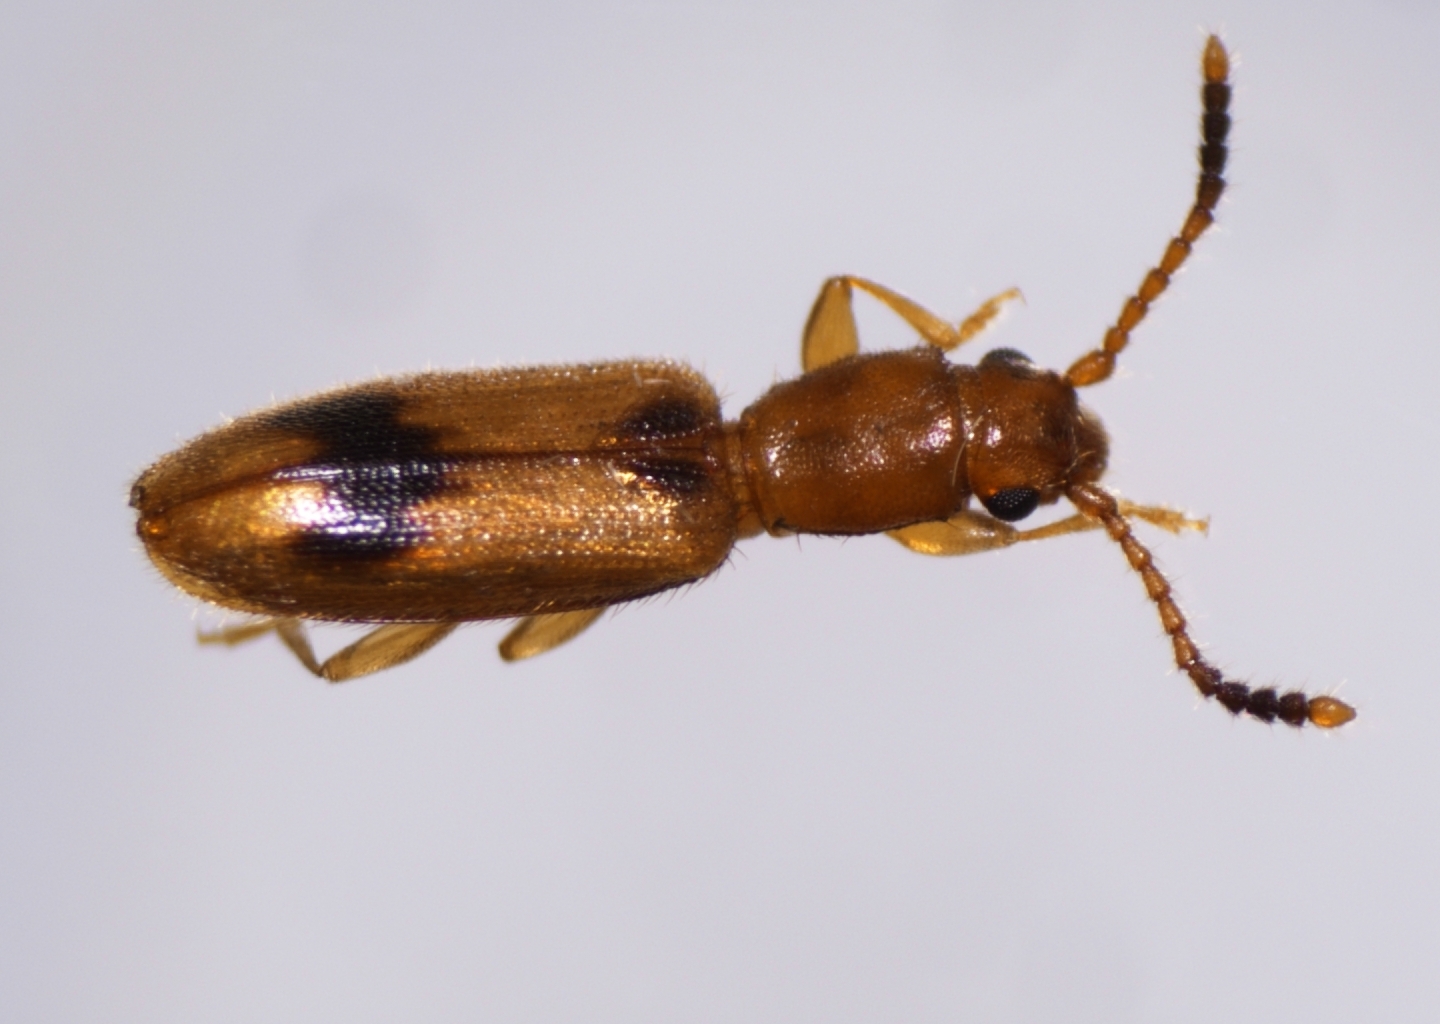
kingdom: Animalia
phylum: Arthropoda
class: Insecta
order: Coleoptera
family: Silvanidae
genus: Cryptamorpha
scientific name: Cryptamorpha desjardinsi
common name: Cryptamorpha
